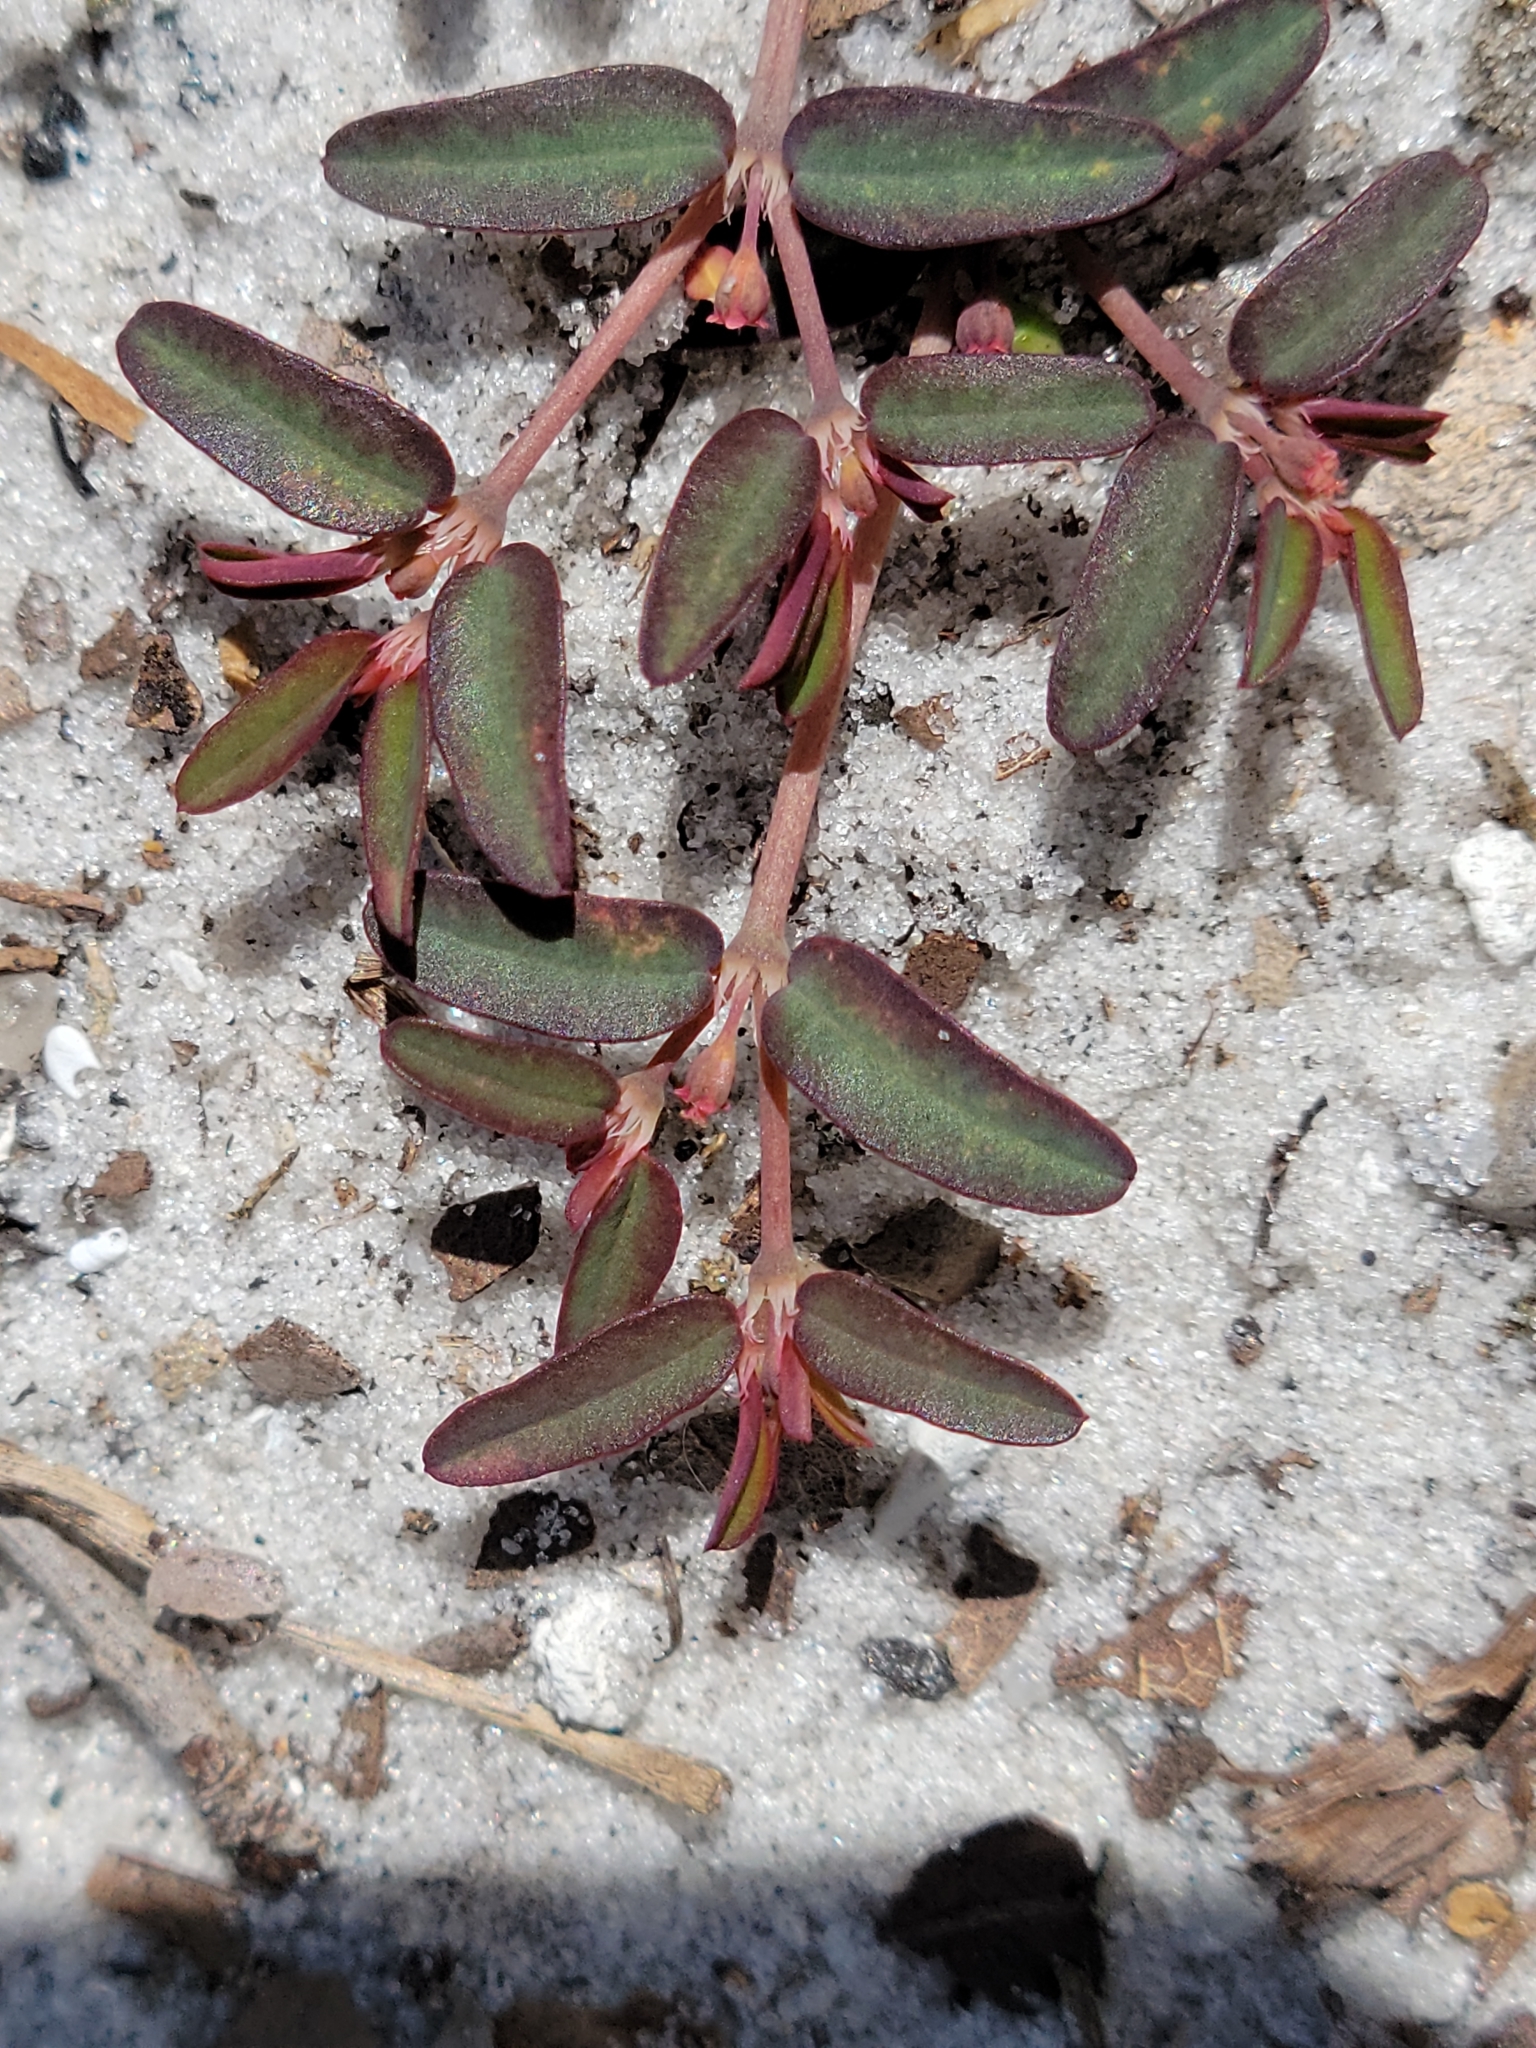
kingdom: Plantae
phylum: Tracheophyta
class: Magnoliopsida
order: Malpighiales
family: Euphorbiaceae
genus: Euphorbia
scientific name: Euphorbia cumulicola
